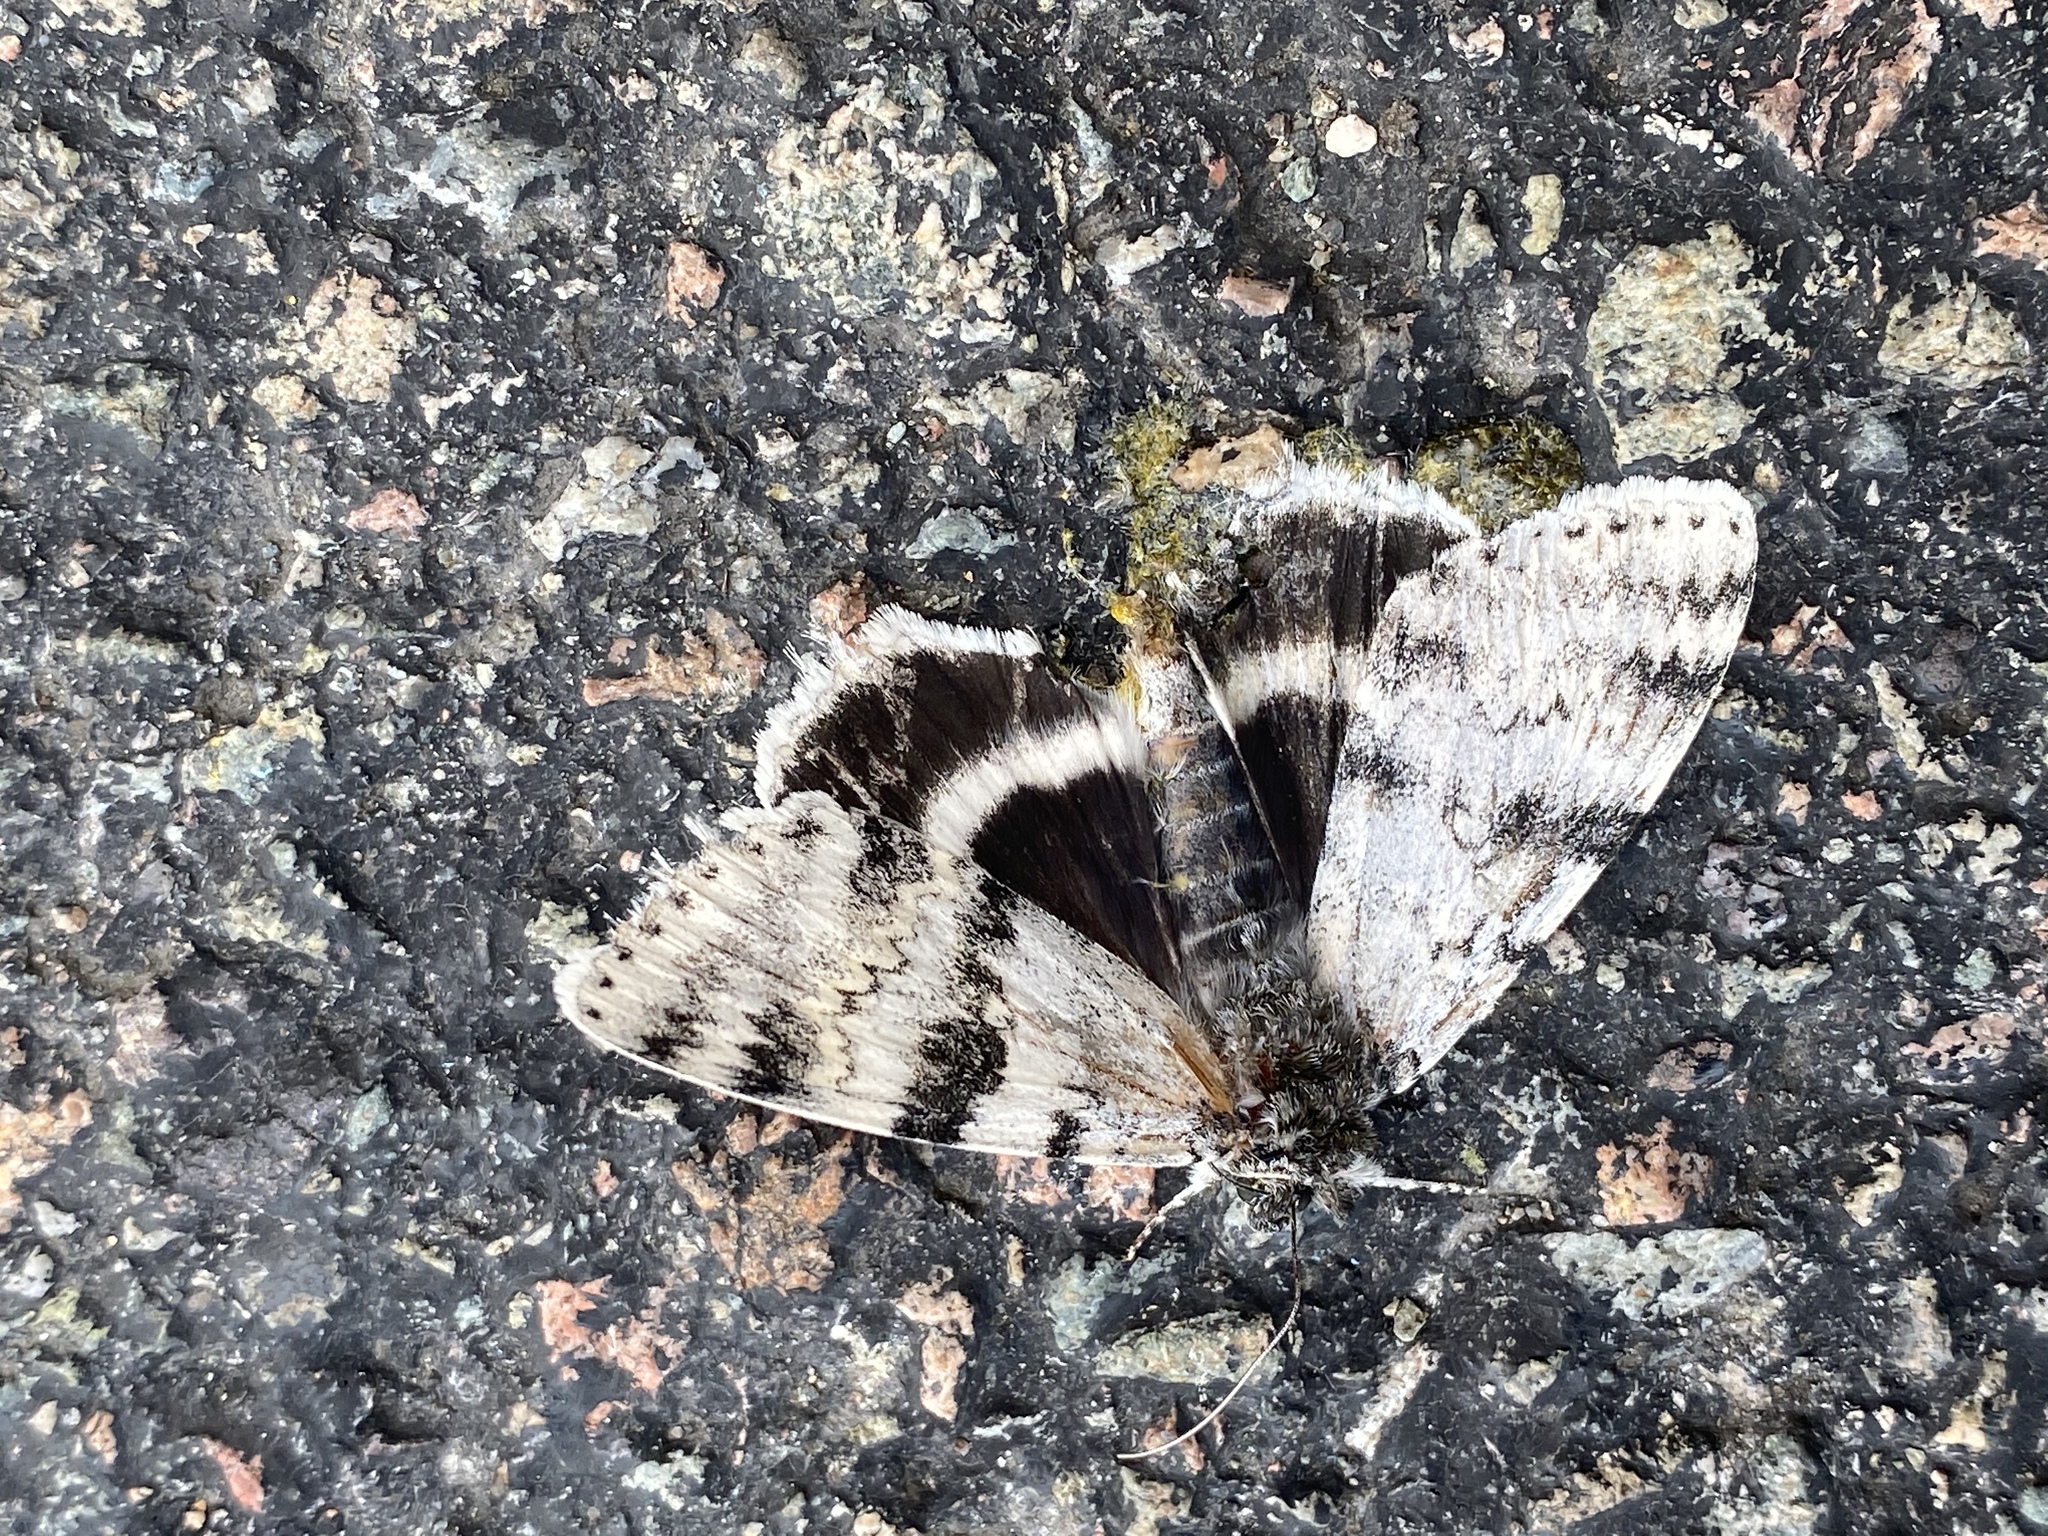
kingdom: Animalia
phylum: Arthropoda
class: Insecta
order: Lepidoptera
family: Erebidae
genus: Catocala
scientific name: Catocala relicta
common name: White underwing
